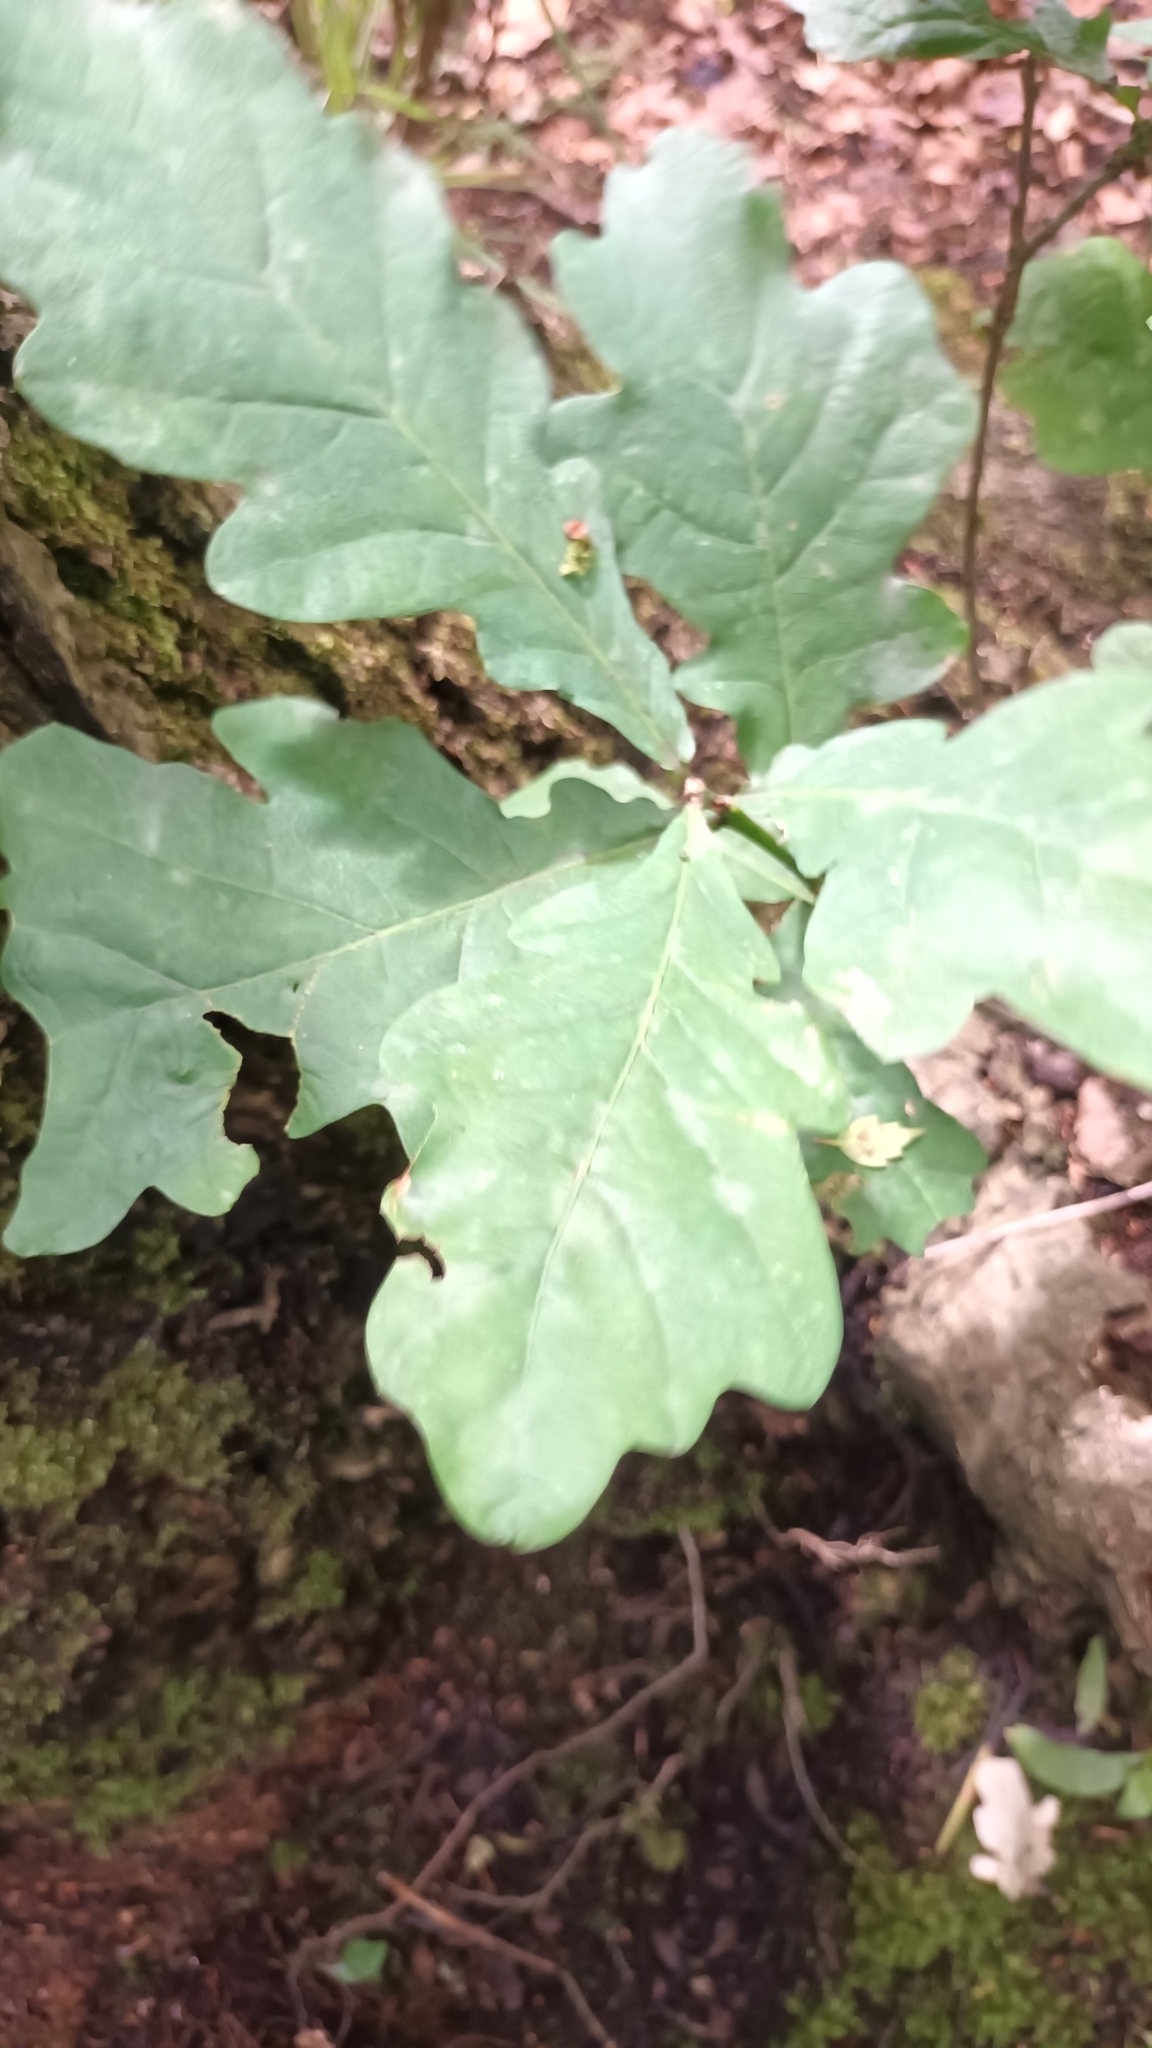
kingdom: Plantae
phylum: Tracheophyta
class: Magnoliopsida
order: Fagales
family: Fagaceae
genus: Quercus
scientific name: Quercus robur
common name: Pedunculate oak
